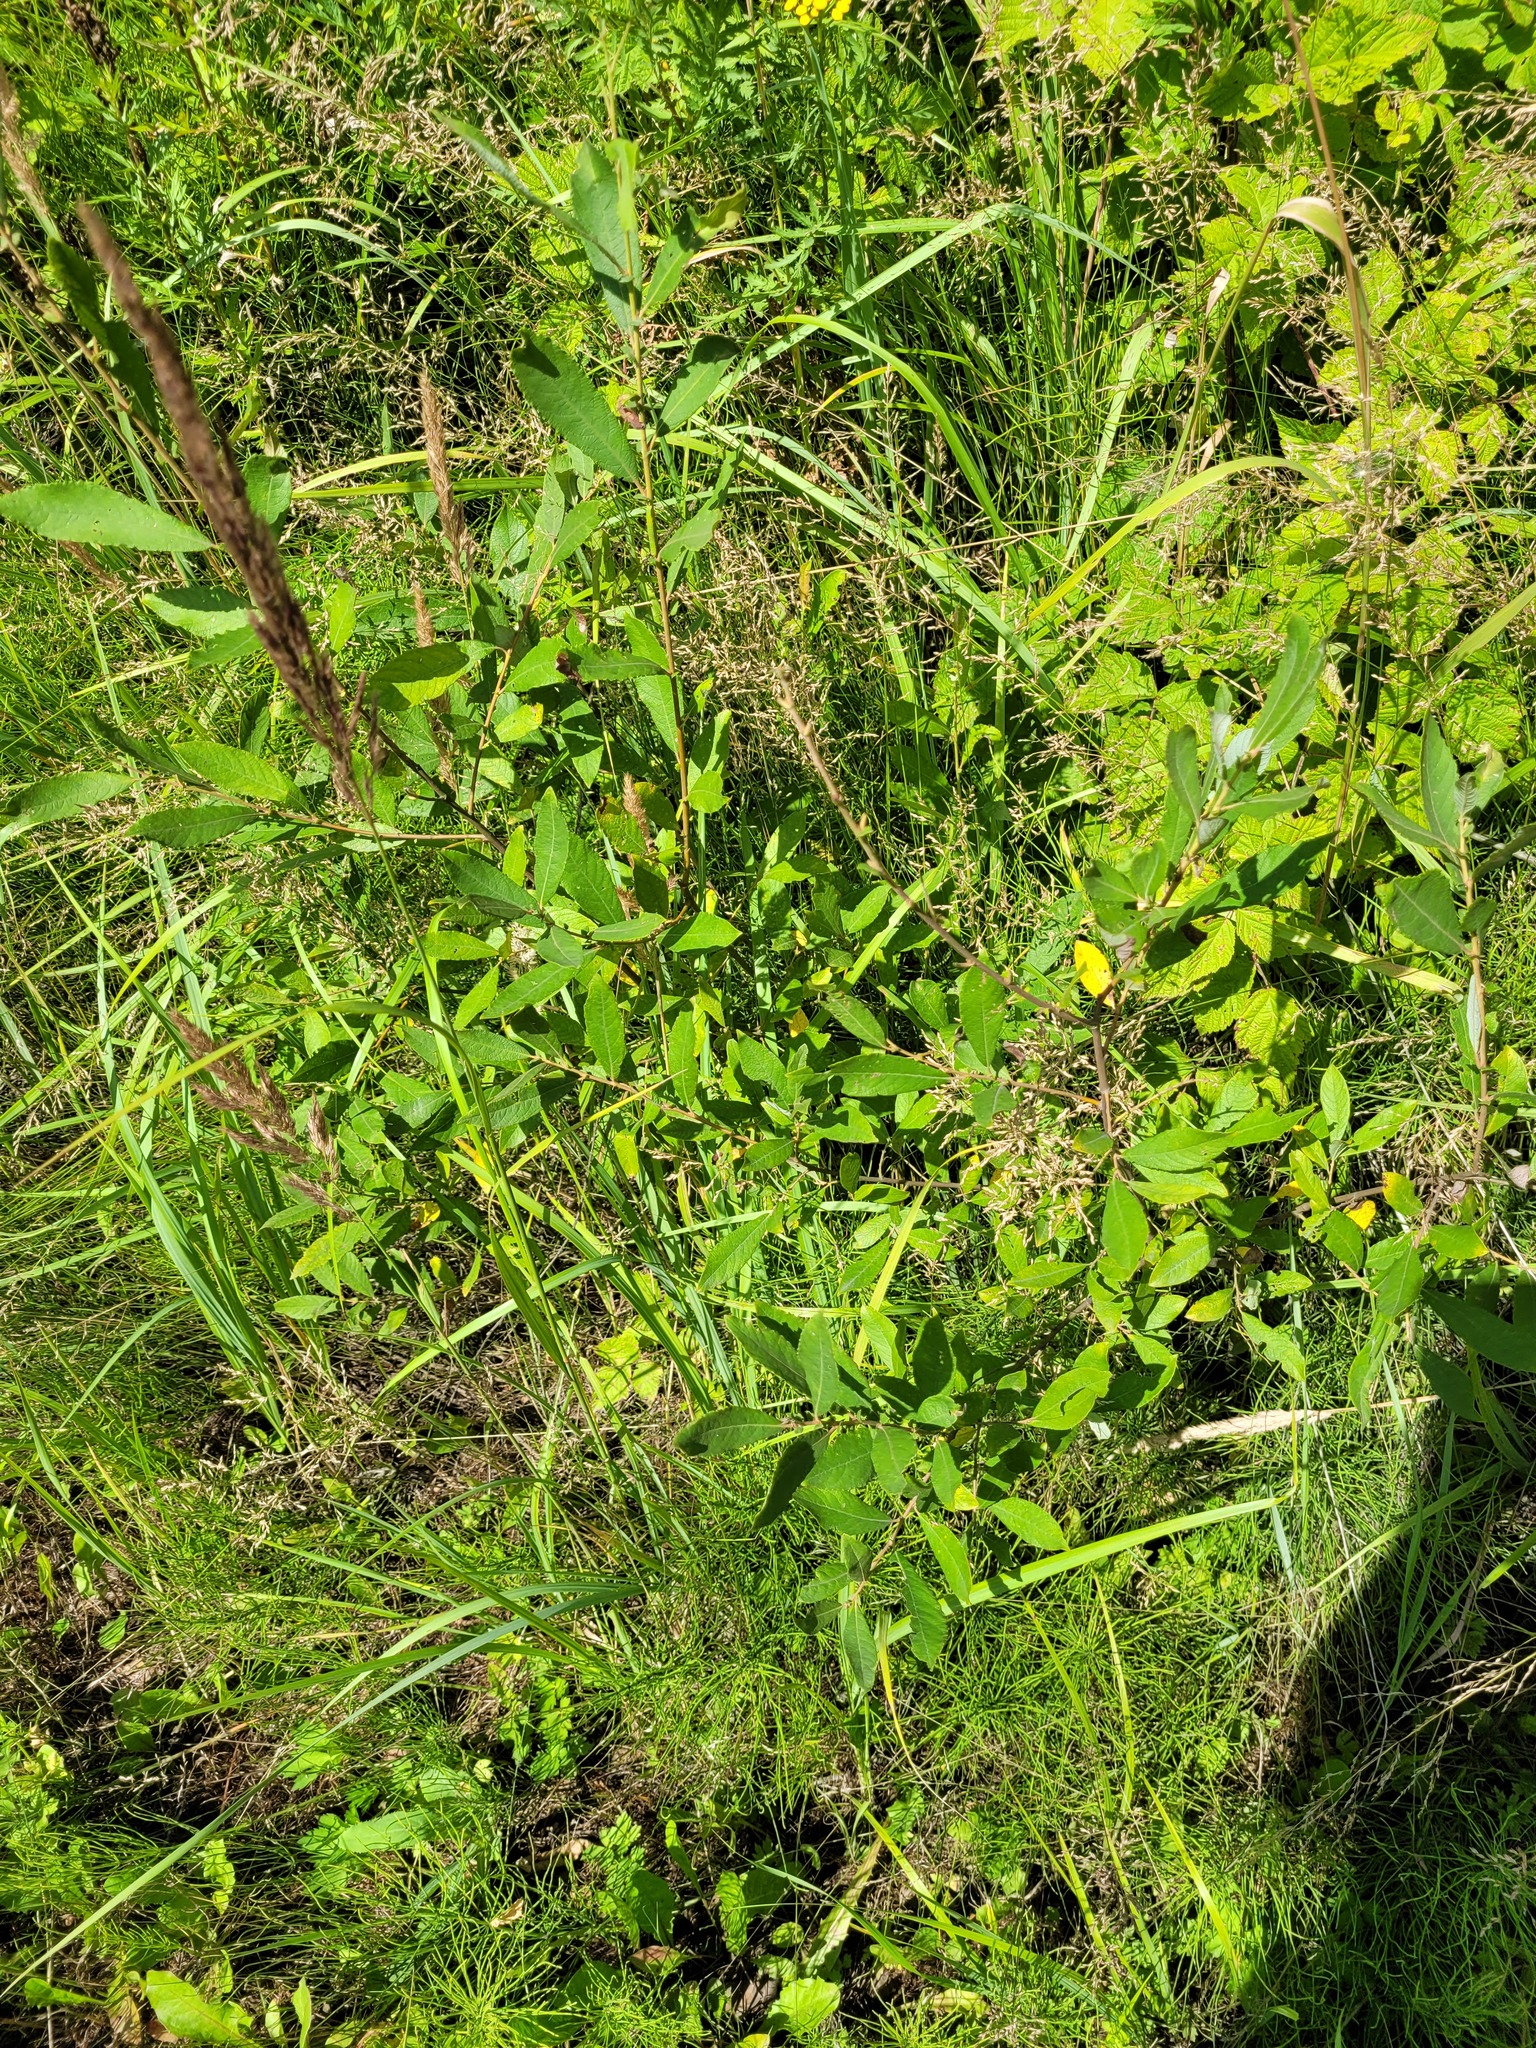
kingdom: Plantae
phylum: Tracheophyta
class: Magnoliopsida
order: Malpighiales
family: Salicaceae
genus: Salix
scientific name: Salix cinerea
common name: Common sallow
